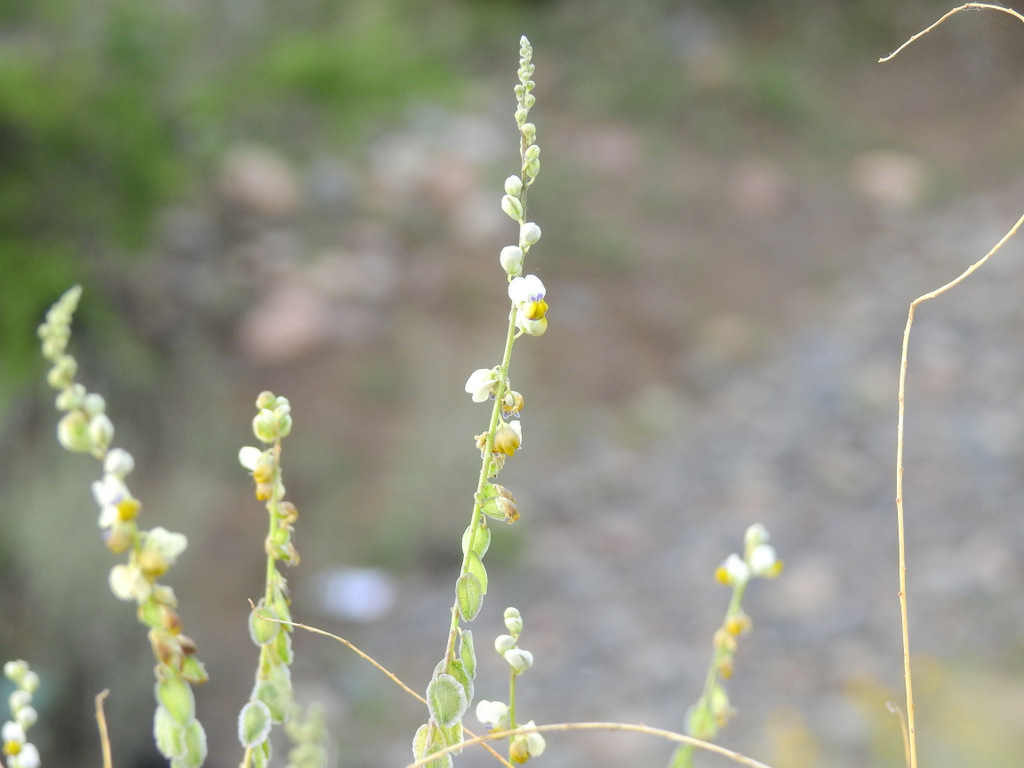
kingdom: Plantae
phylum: Tracheophyta
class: Magnoliopsida
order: Fabales
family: Polygalaceae
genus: Monnina
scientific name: Monnina dictyocarpa
